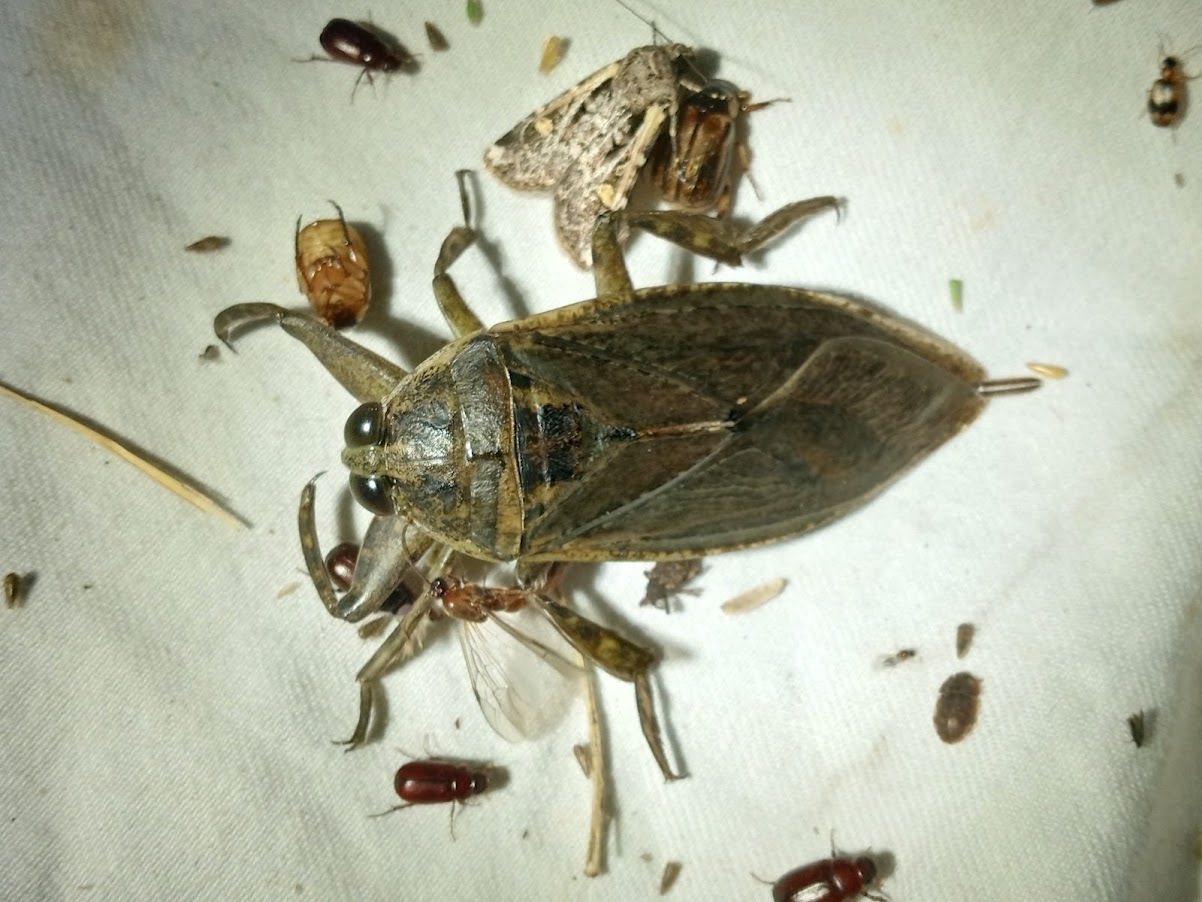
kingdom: Animalia
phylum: Arthropoda
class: Insecta
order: Hemiptera
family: Belostomatidae
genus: Lethocerus
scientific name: Lethocerus medius
